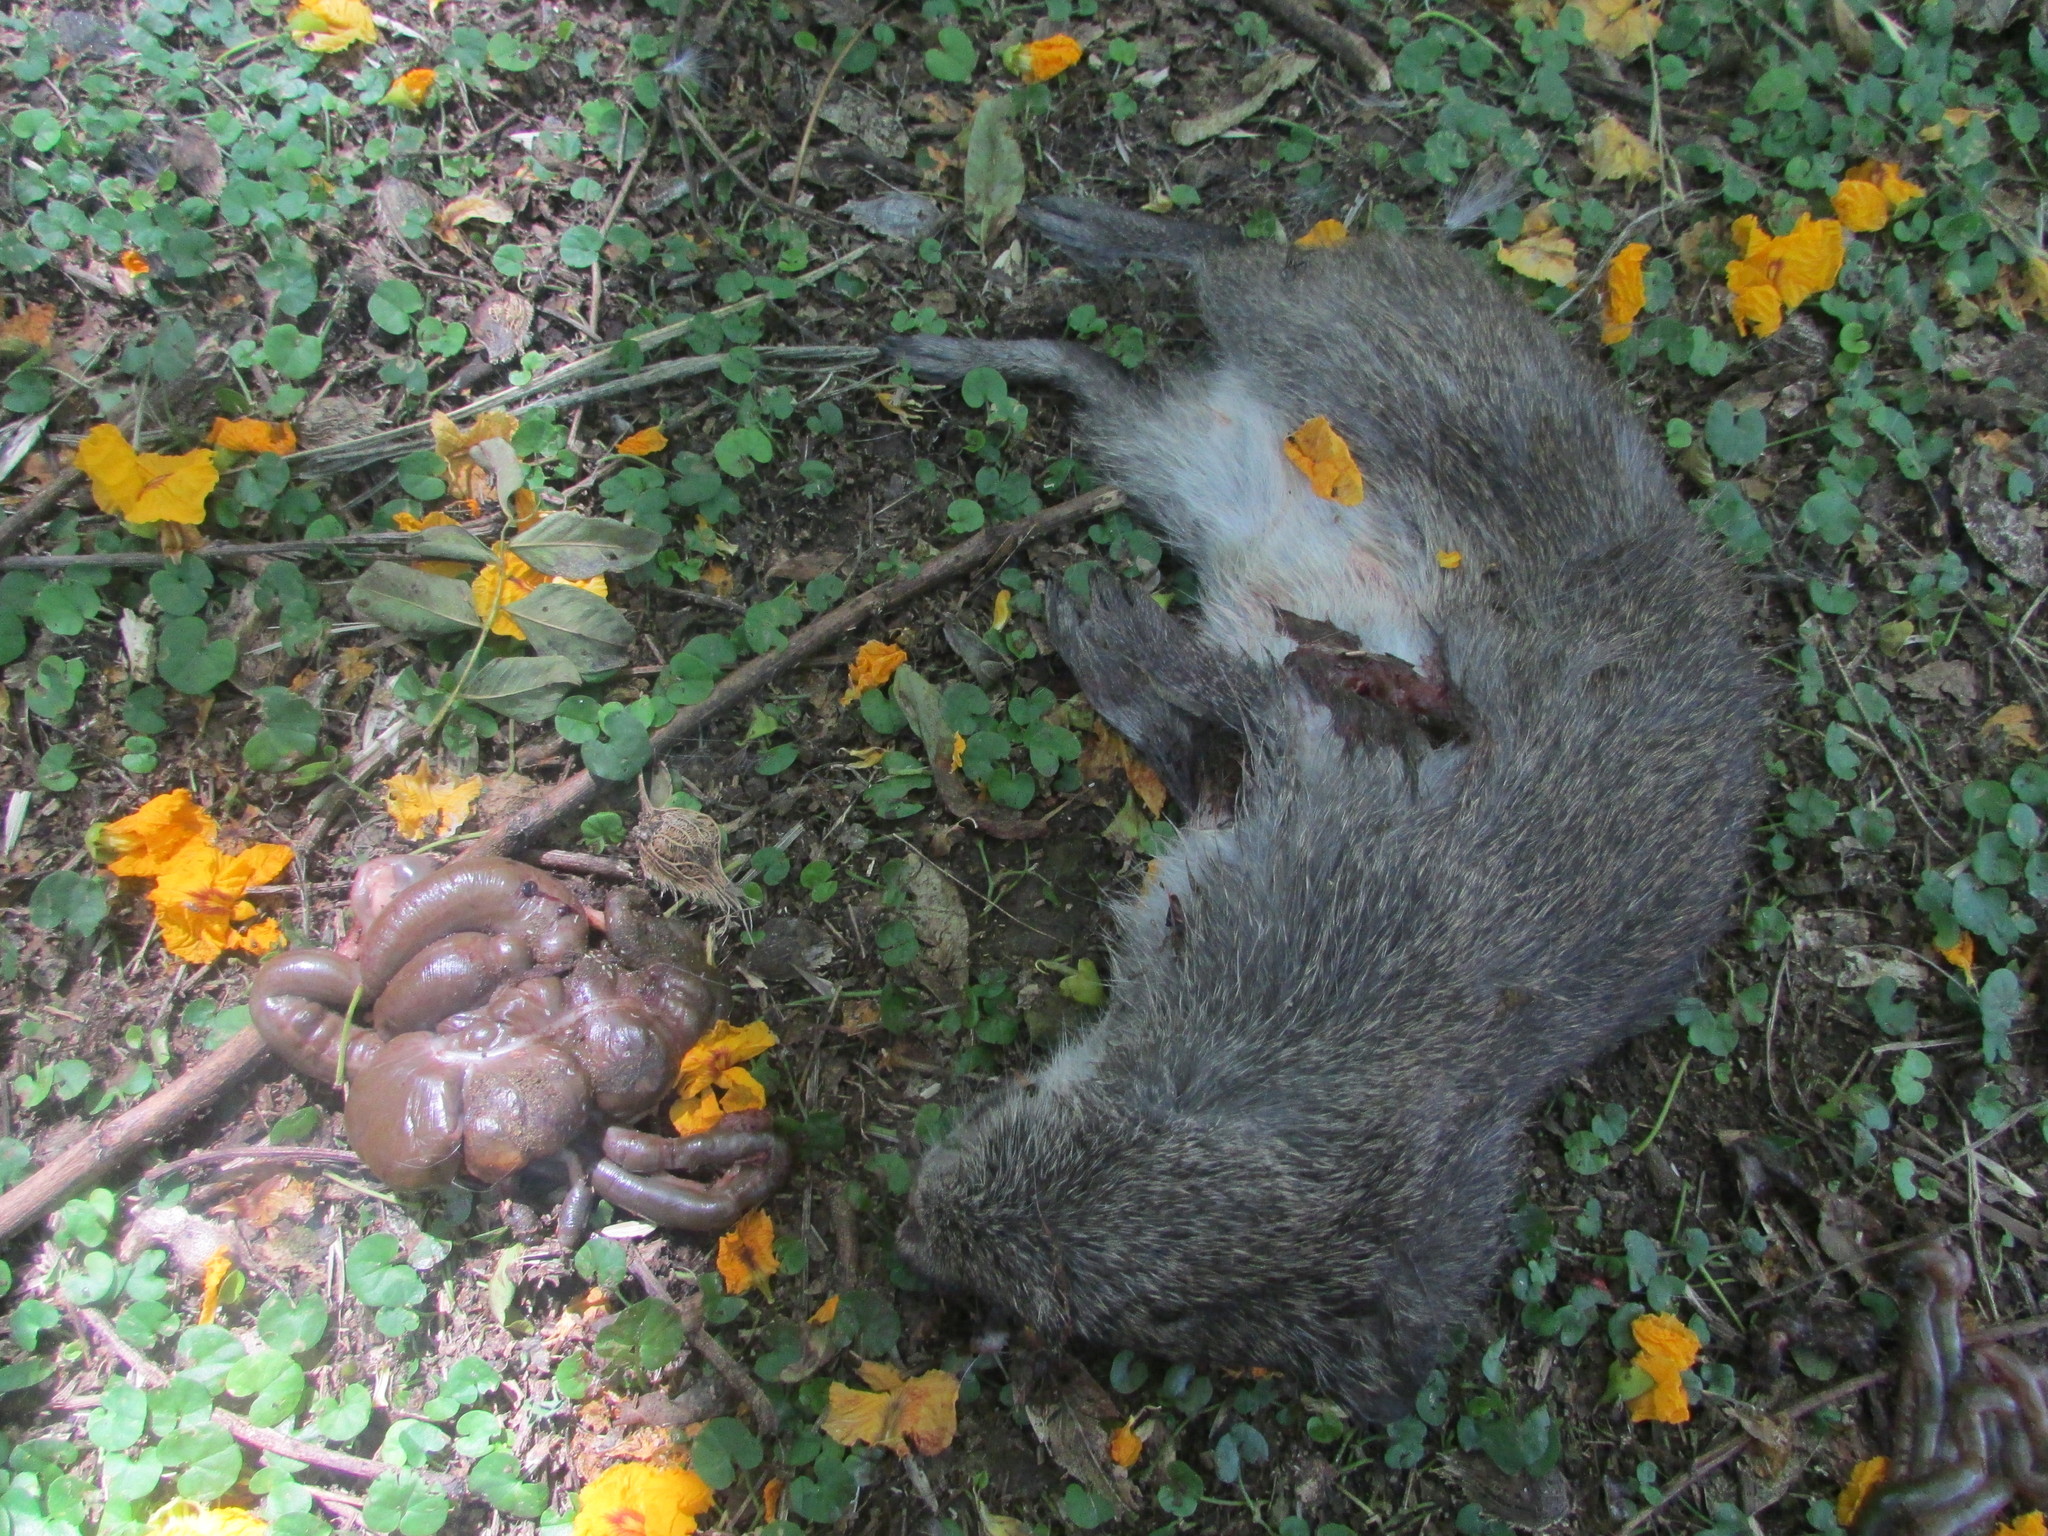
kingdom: Animalia
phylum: Chordata
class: Mammalia
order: Rodentia
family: Caviidae
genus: Cavia
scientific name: Cavia aperea
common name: Brazilian guinea pig
